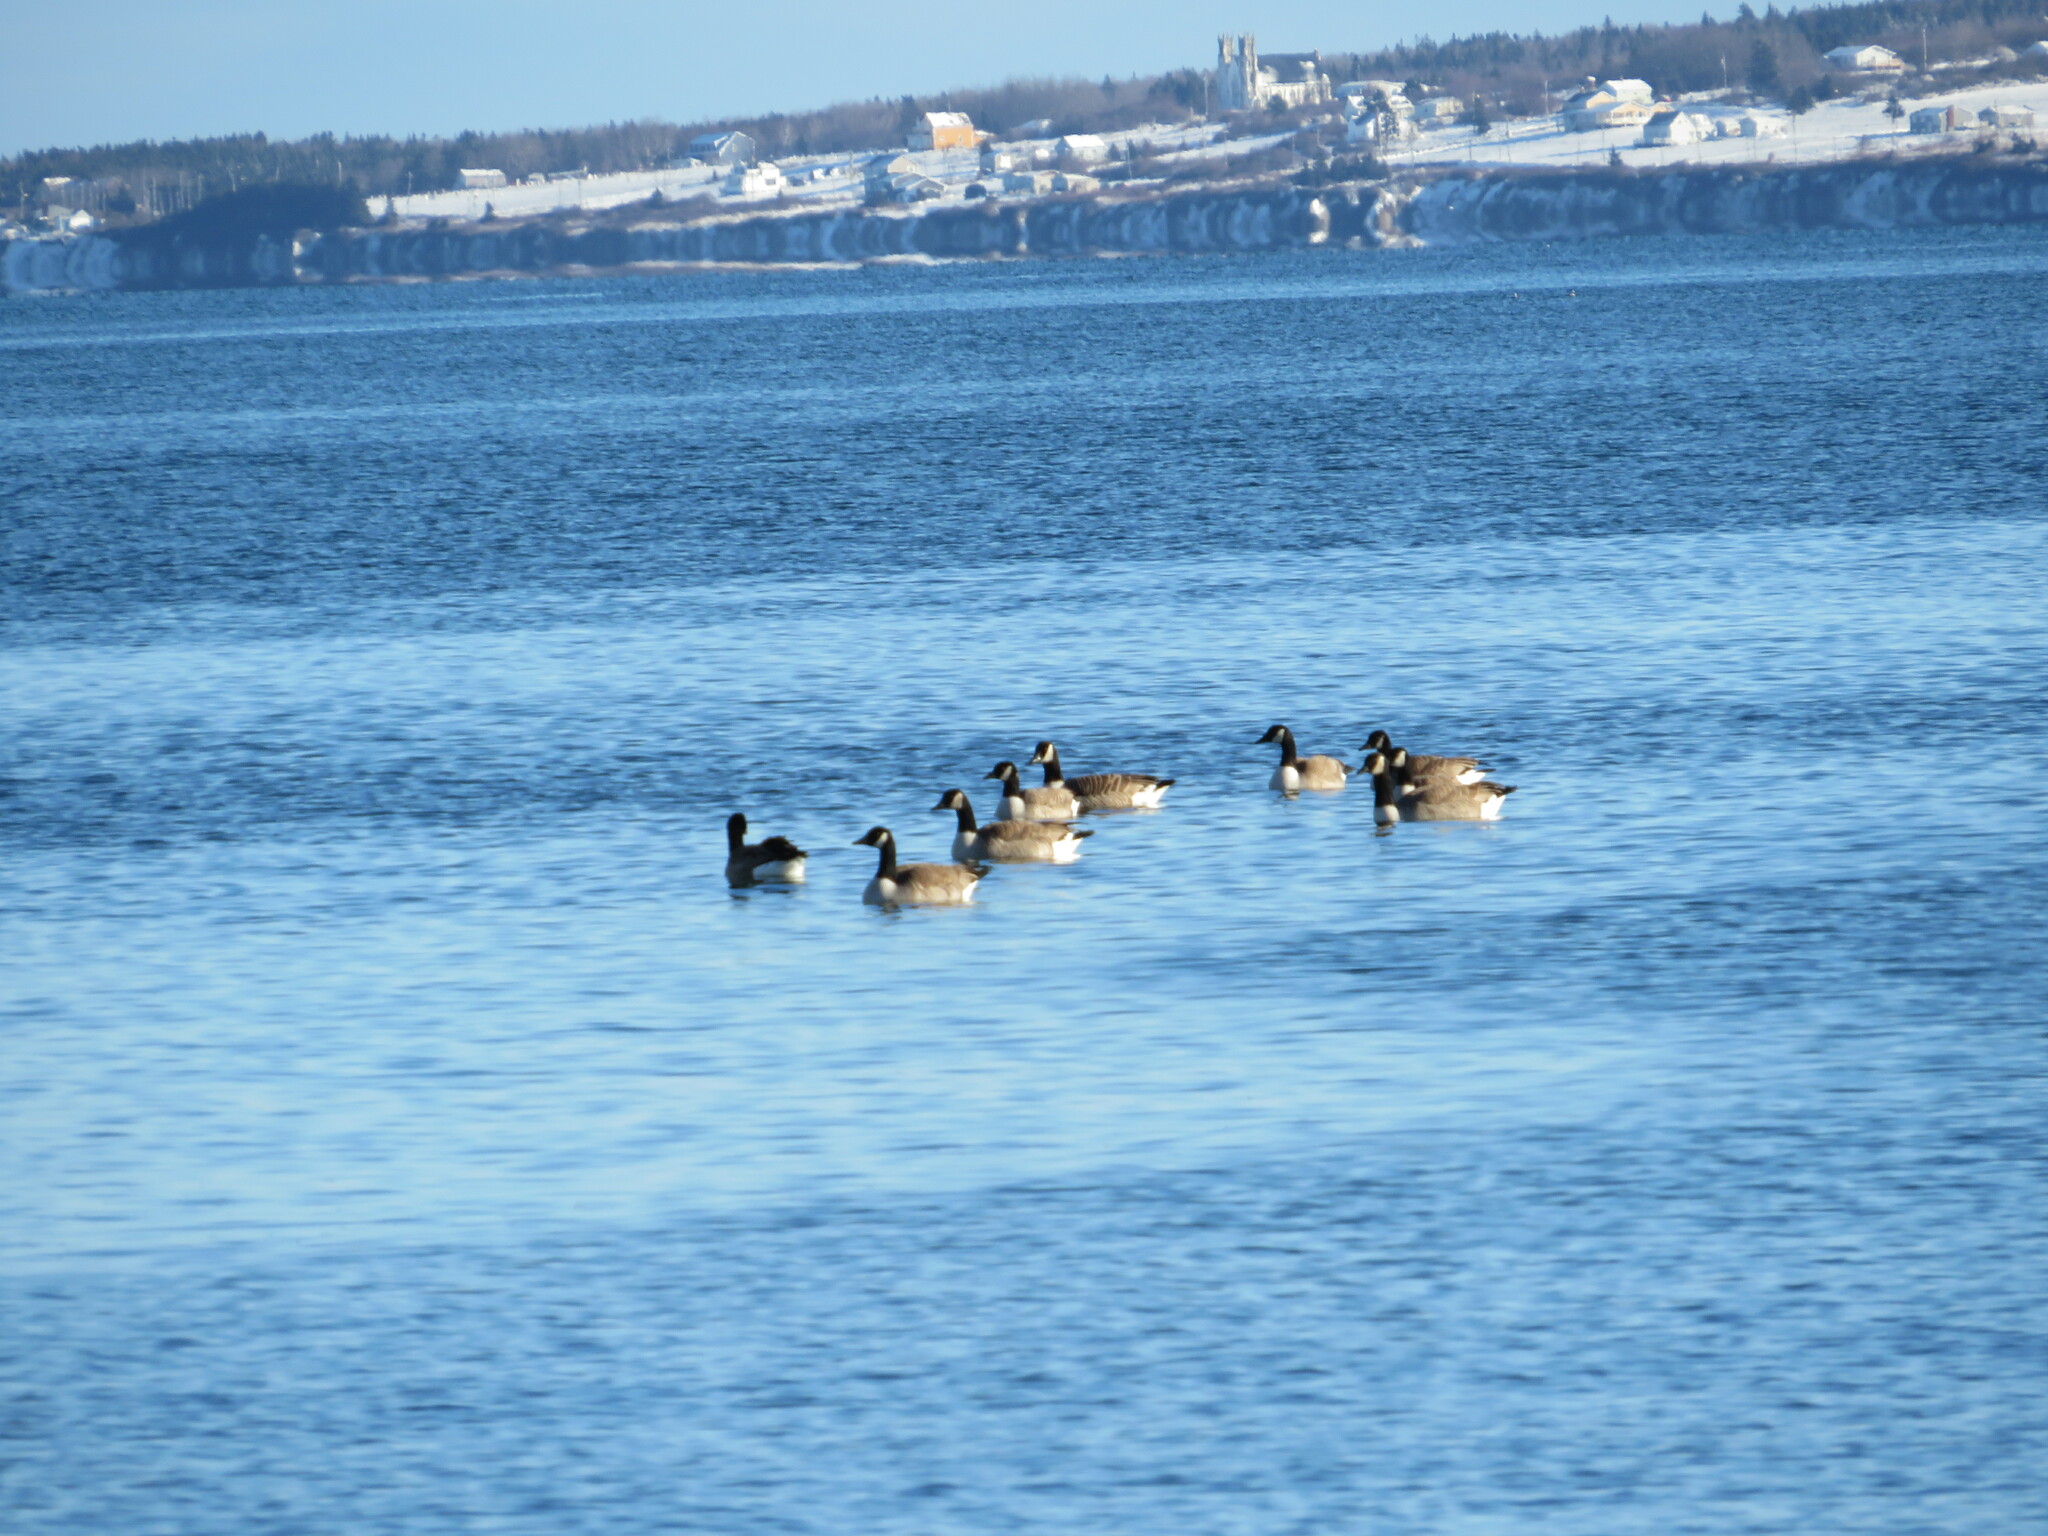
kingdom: Animalia
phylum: Chordata
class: Aves
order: Anseriformes
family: Anatidae
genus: Branta
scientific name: Branta canadensis
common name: Canada goose
